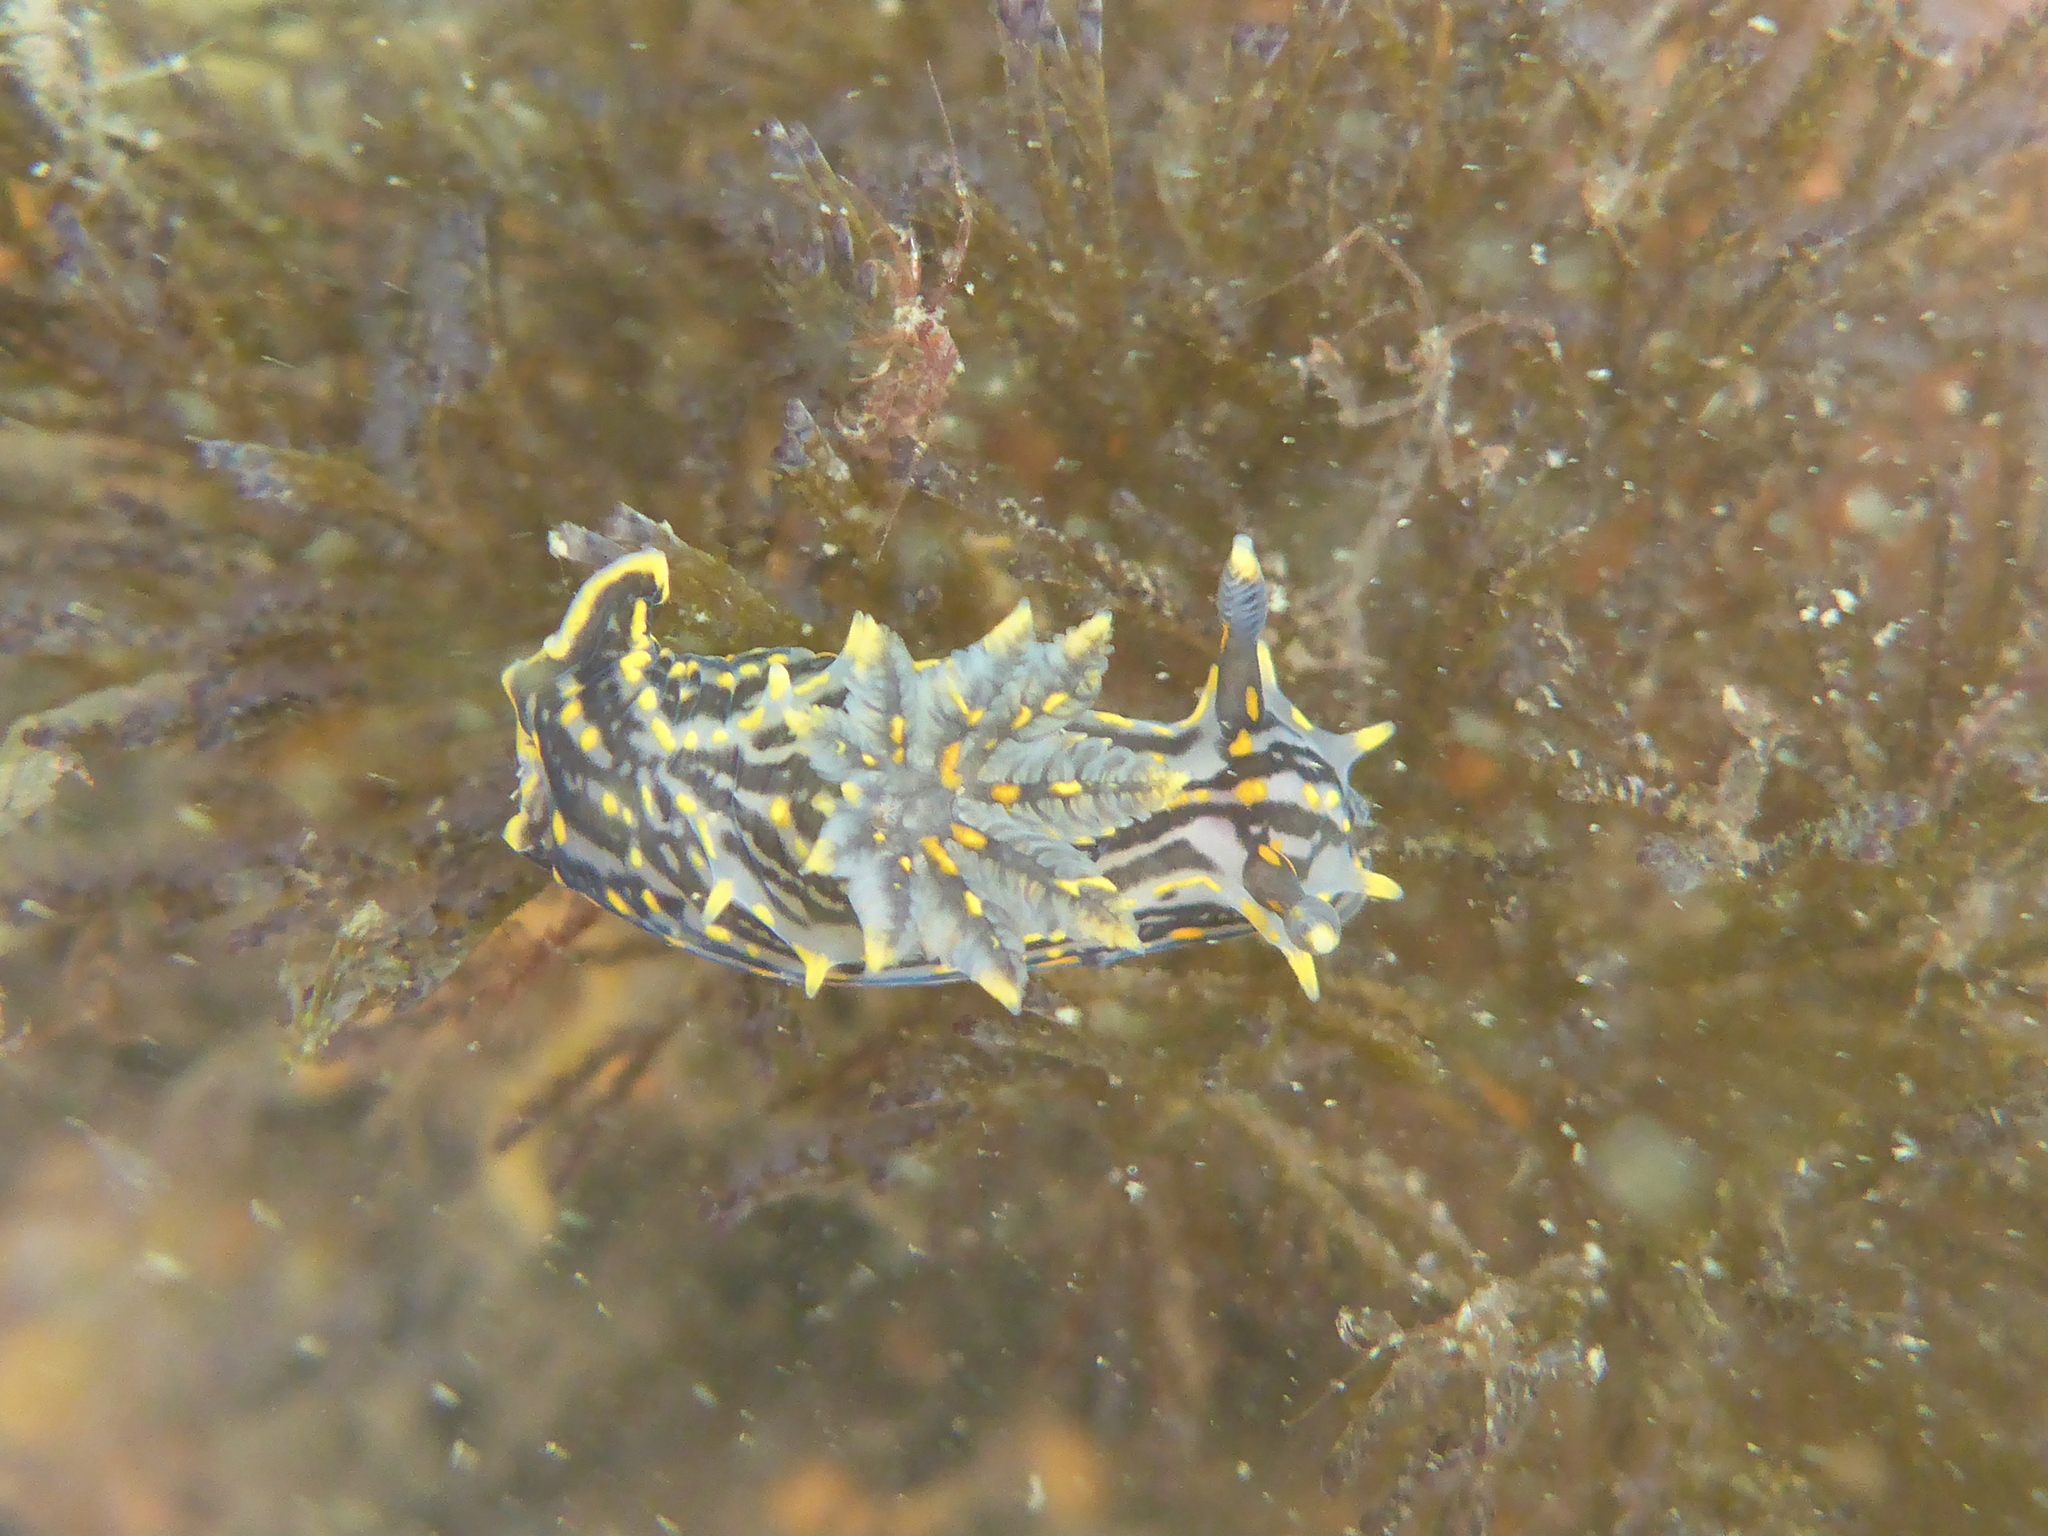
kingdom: Animalia
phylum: Mollusca
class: Gastropoda
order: Nudibranchia
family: Polyceridae
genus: Polycera
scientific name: Polycera atra
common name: Orange-spike polycera
